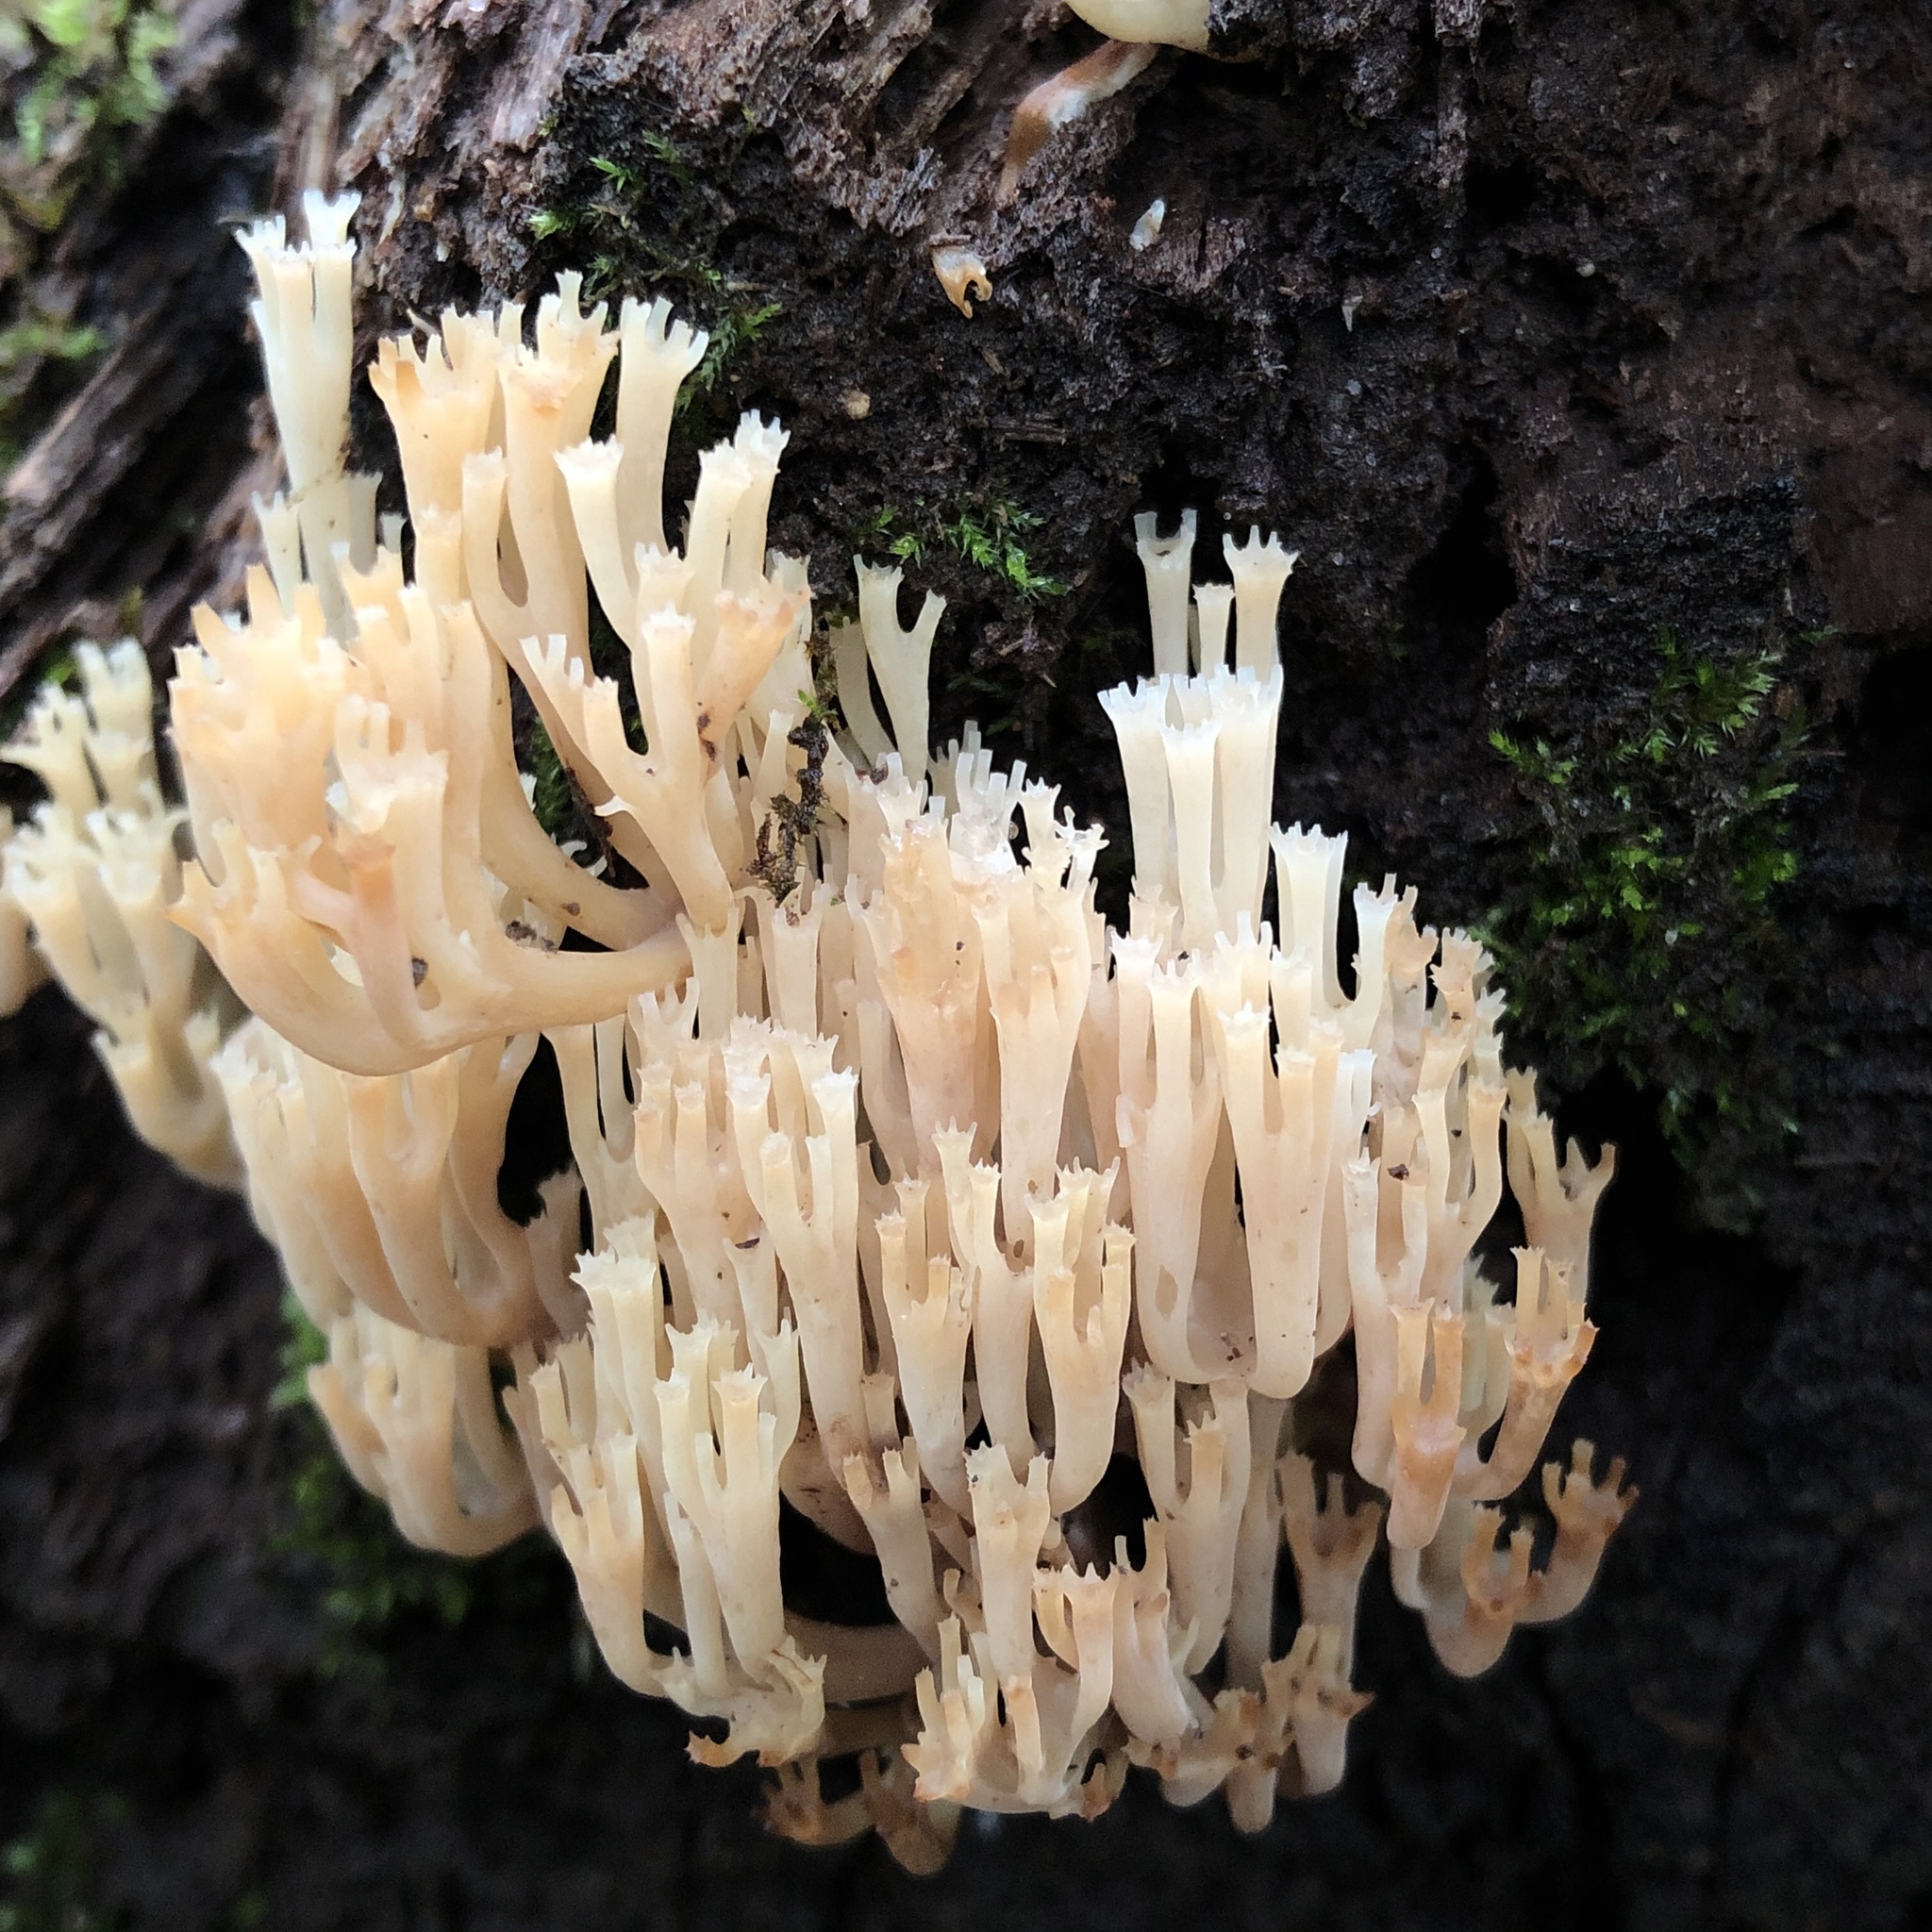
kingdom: Fungi
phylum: Basidiomycota
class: Agaricomycetes
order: Russulales
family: Auriscalpiaceae
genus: Artomyces
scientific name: Artomyces pyxidatus
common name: Crown-tipped coral fungus
